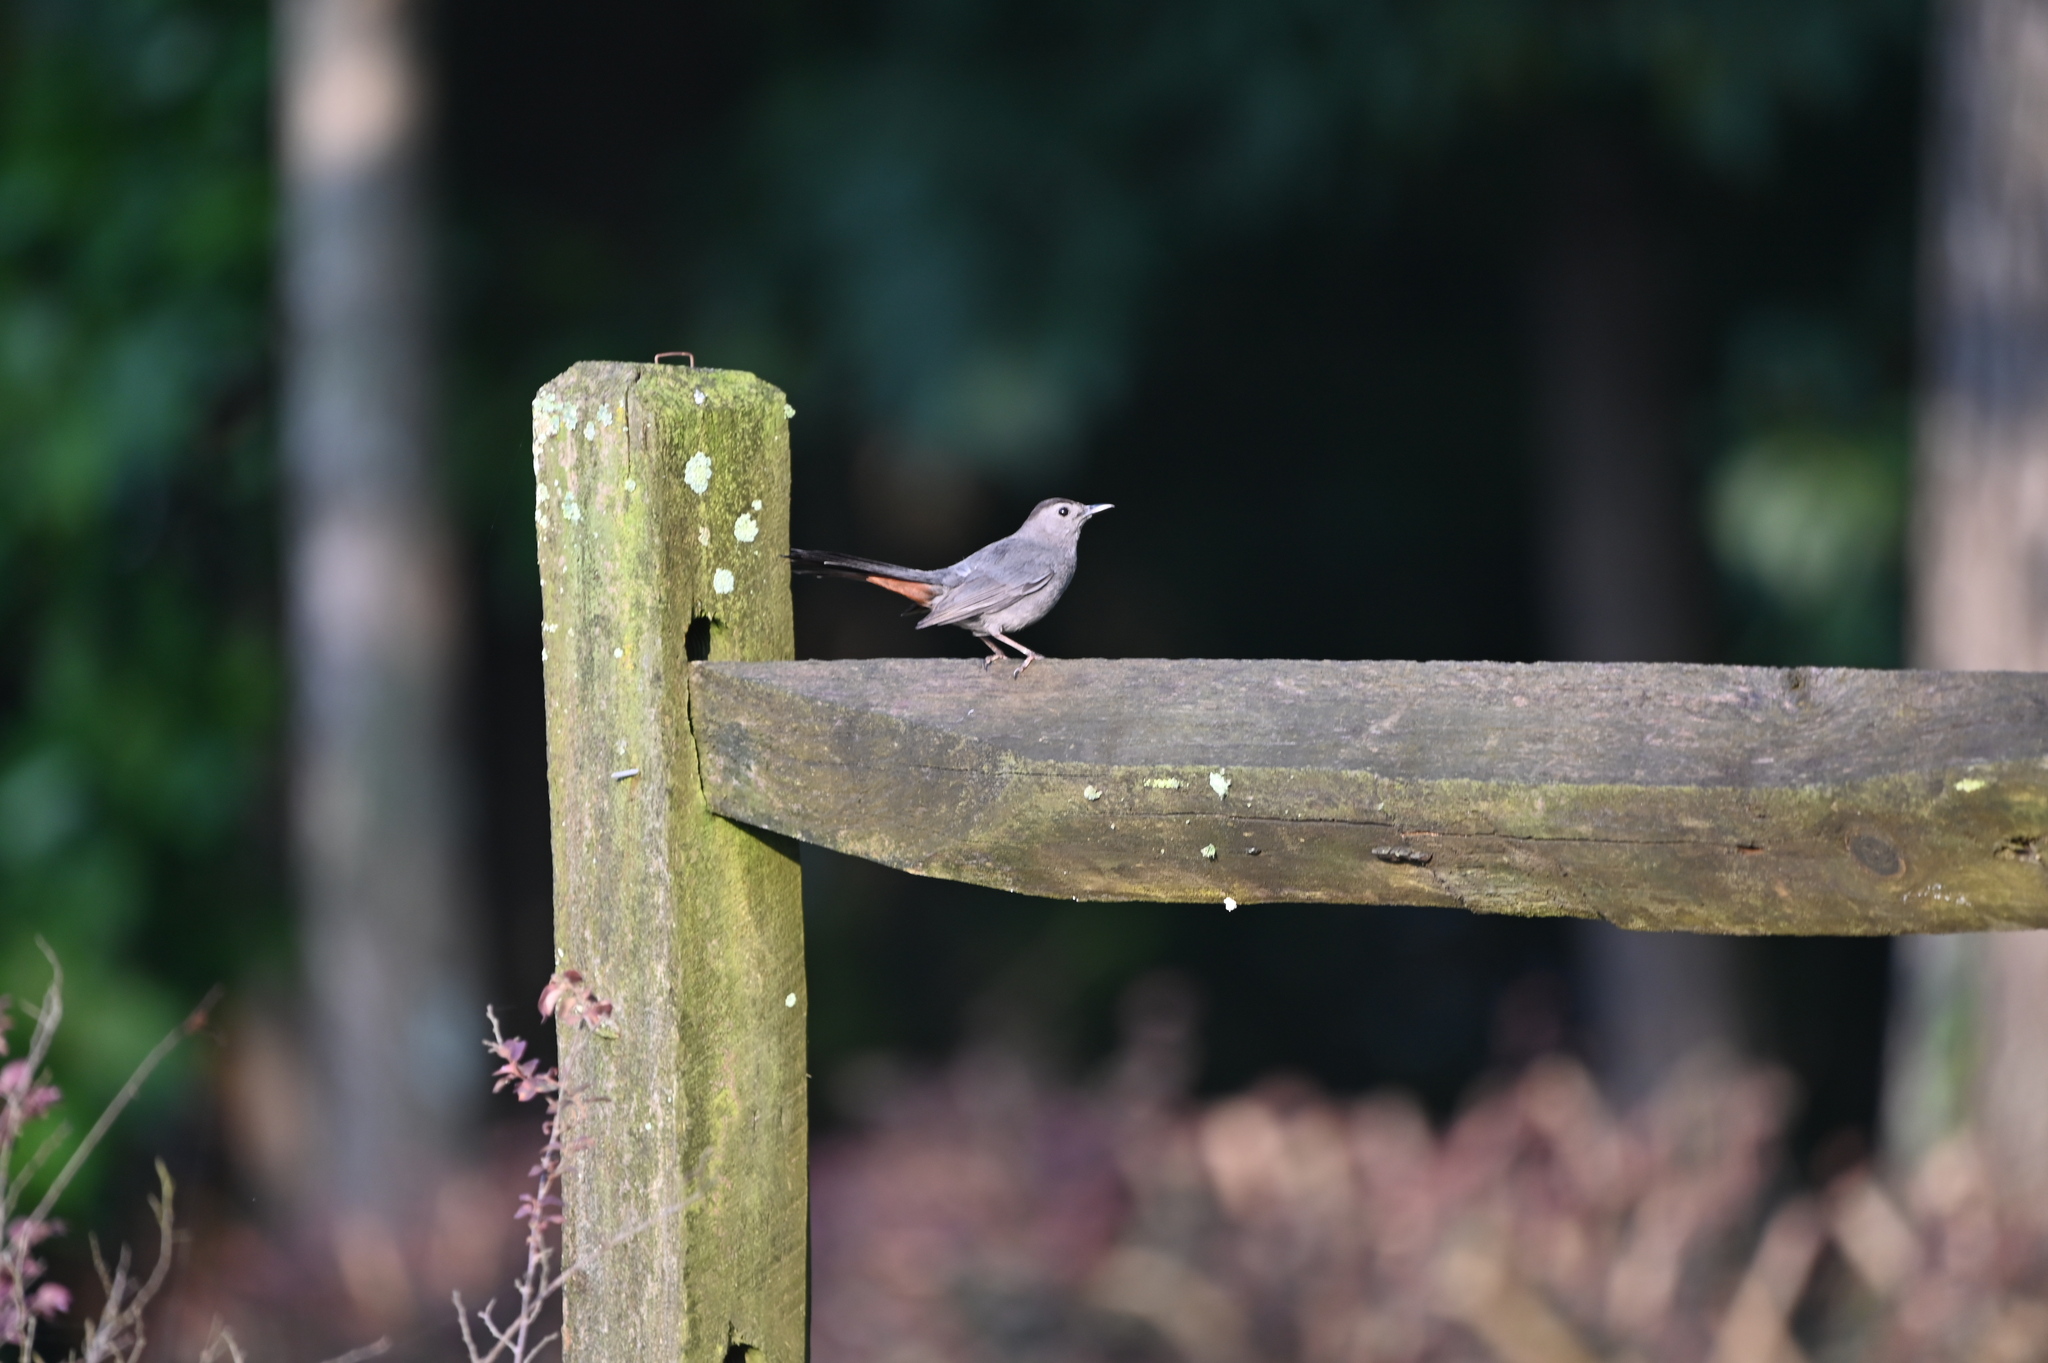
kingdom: Animalia
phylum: Chordata
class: Aves
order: Passeriformes
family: Mimidae
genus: Dumetella
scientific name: Dumetella carolinensis
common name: Gray catbird
